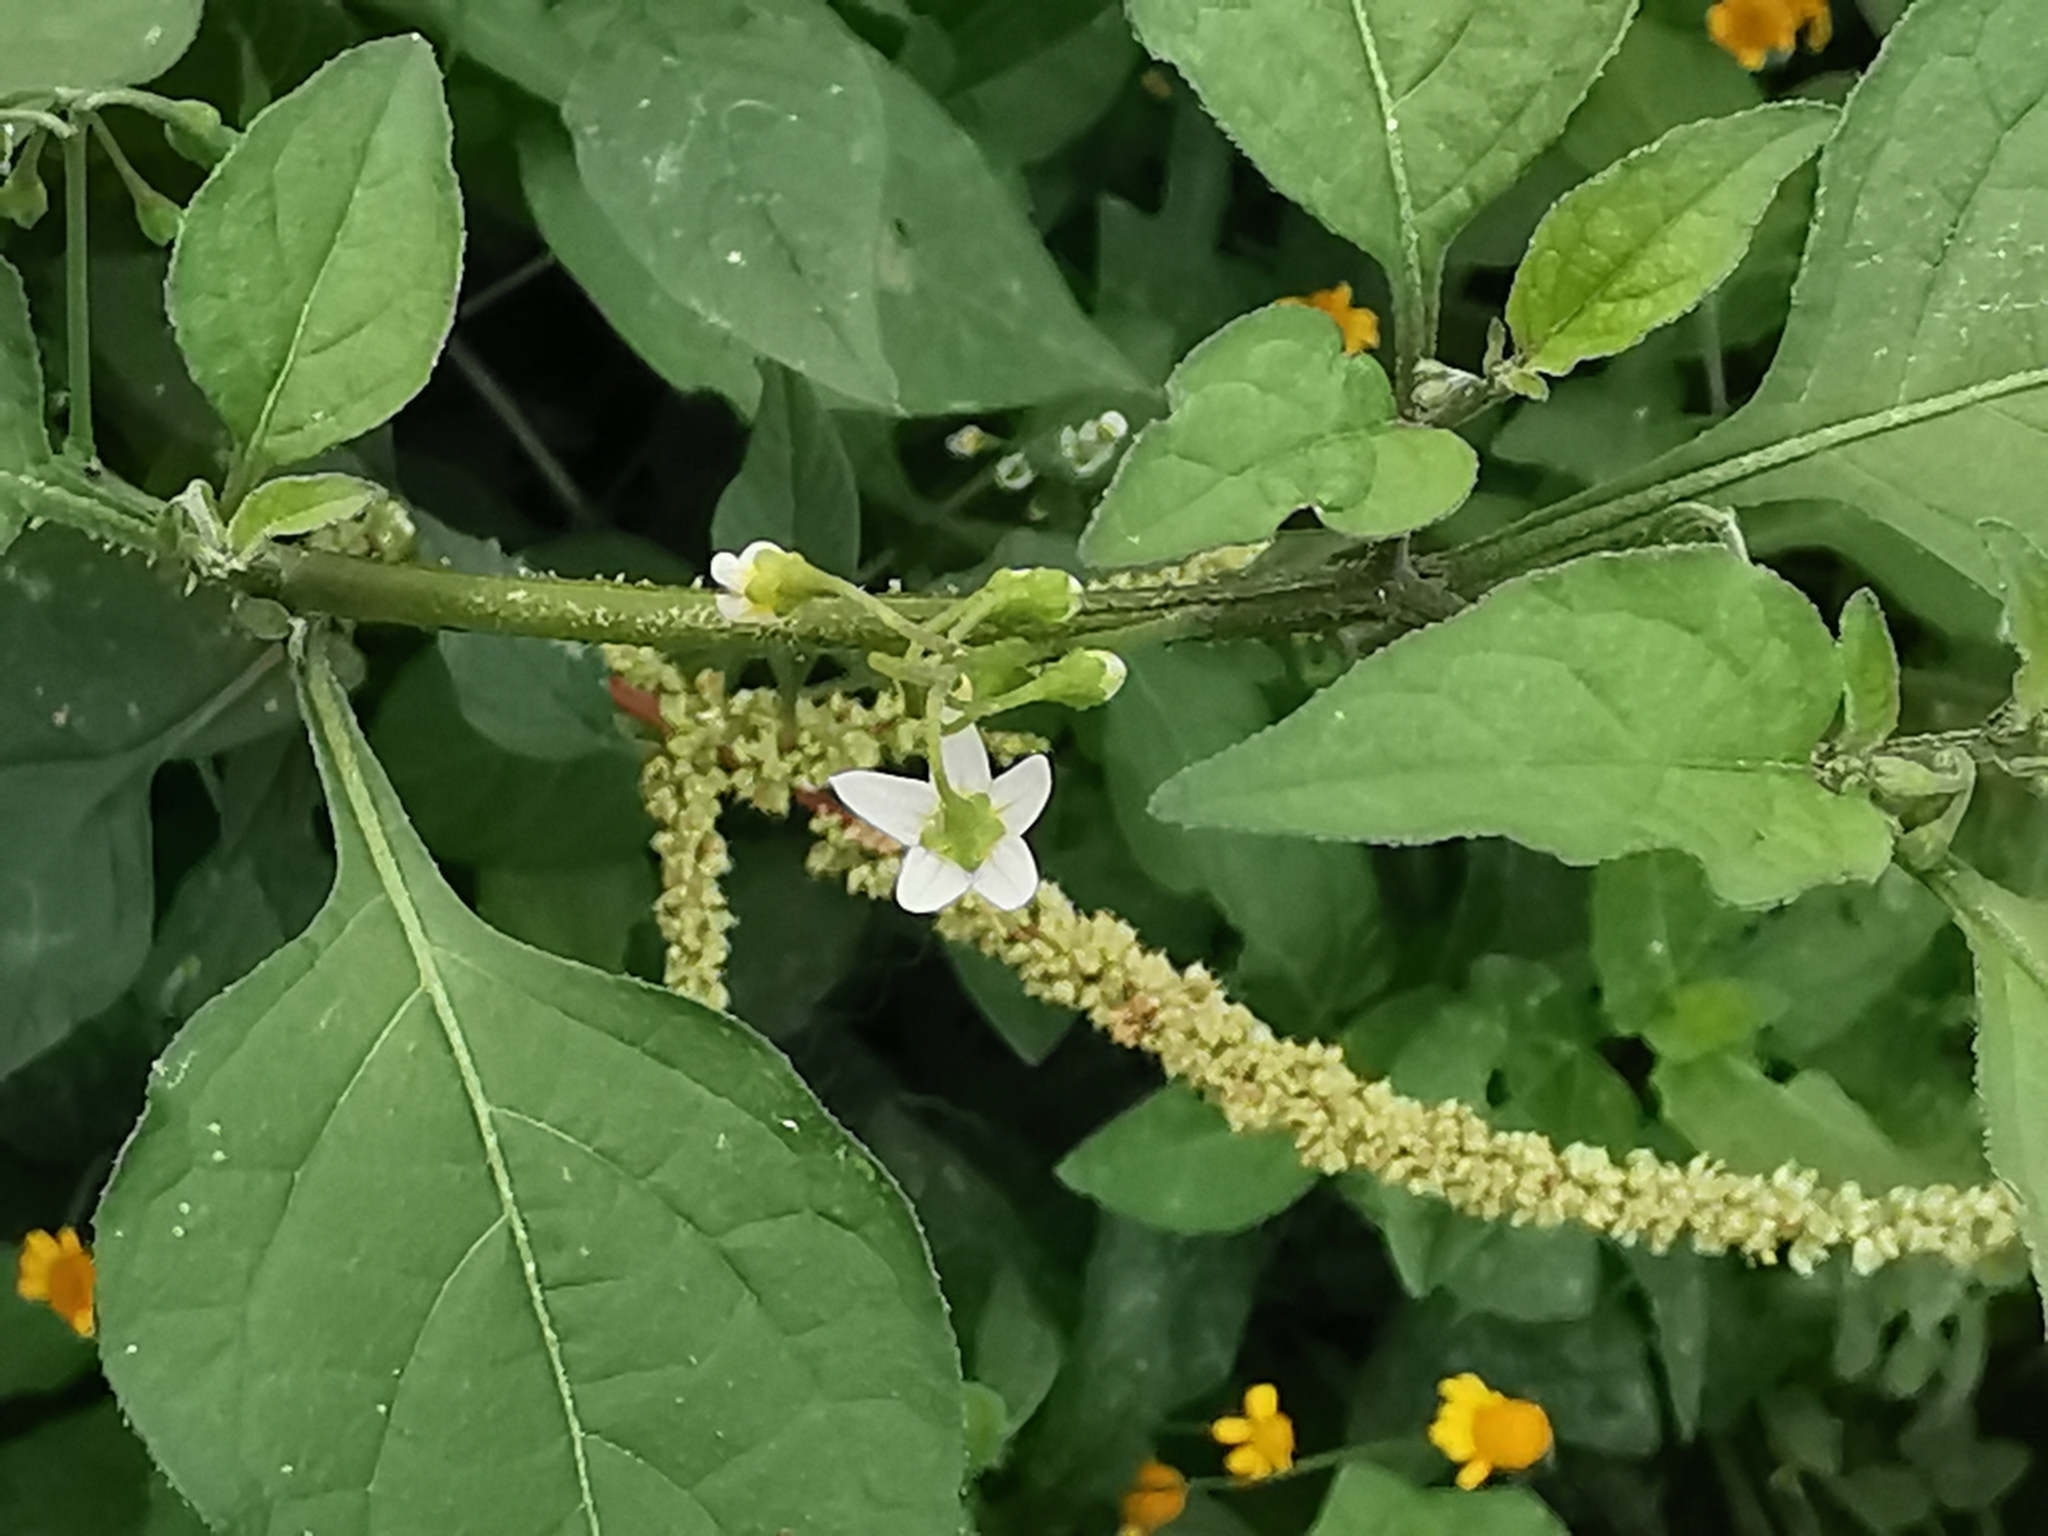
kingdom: Plantae
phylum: Tracheophyta
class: Magnoliopsida
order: Caryophyllales
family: Amaranthaceae
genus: Amaranthus
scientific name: Amaranthus hybridus
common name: Green amaranth
